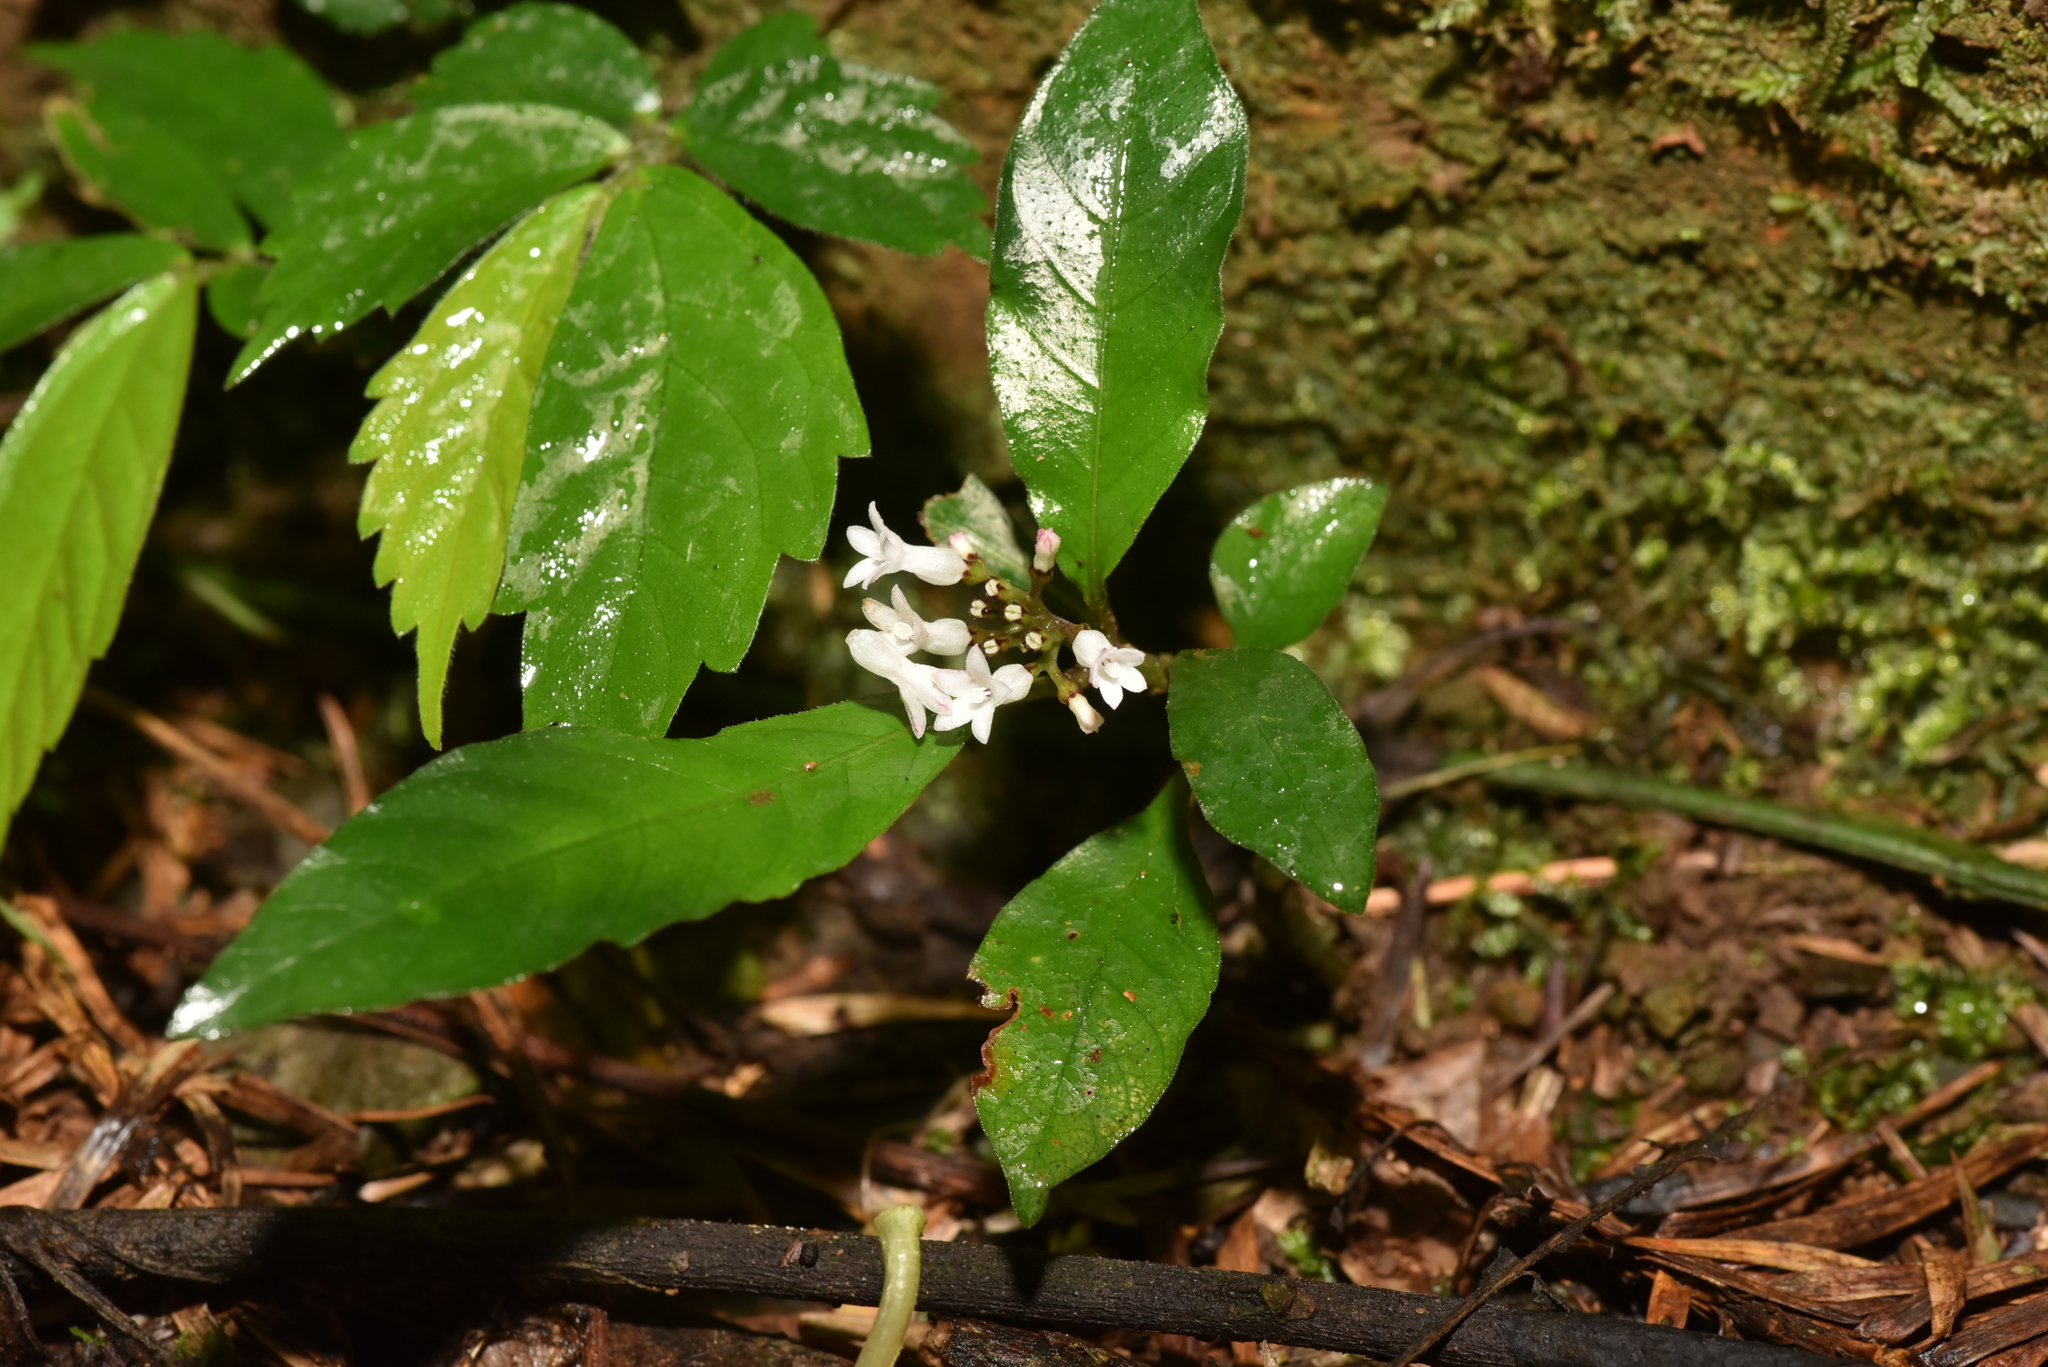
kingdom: Plantae
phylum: Tracheophyta
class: Magnoliopsida
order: Gentianales
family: Rubiaceae
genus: Ophiorrhiza
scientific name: Ophiorrhiza pumila
